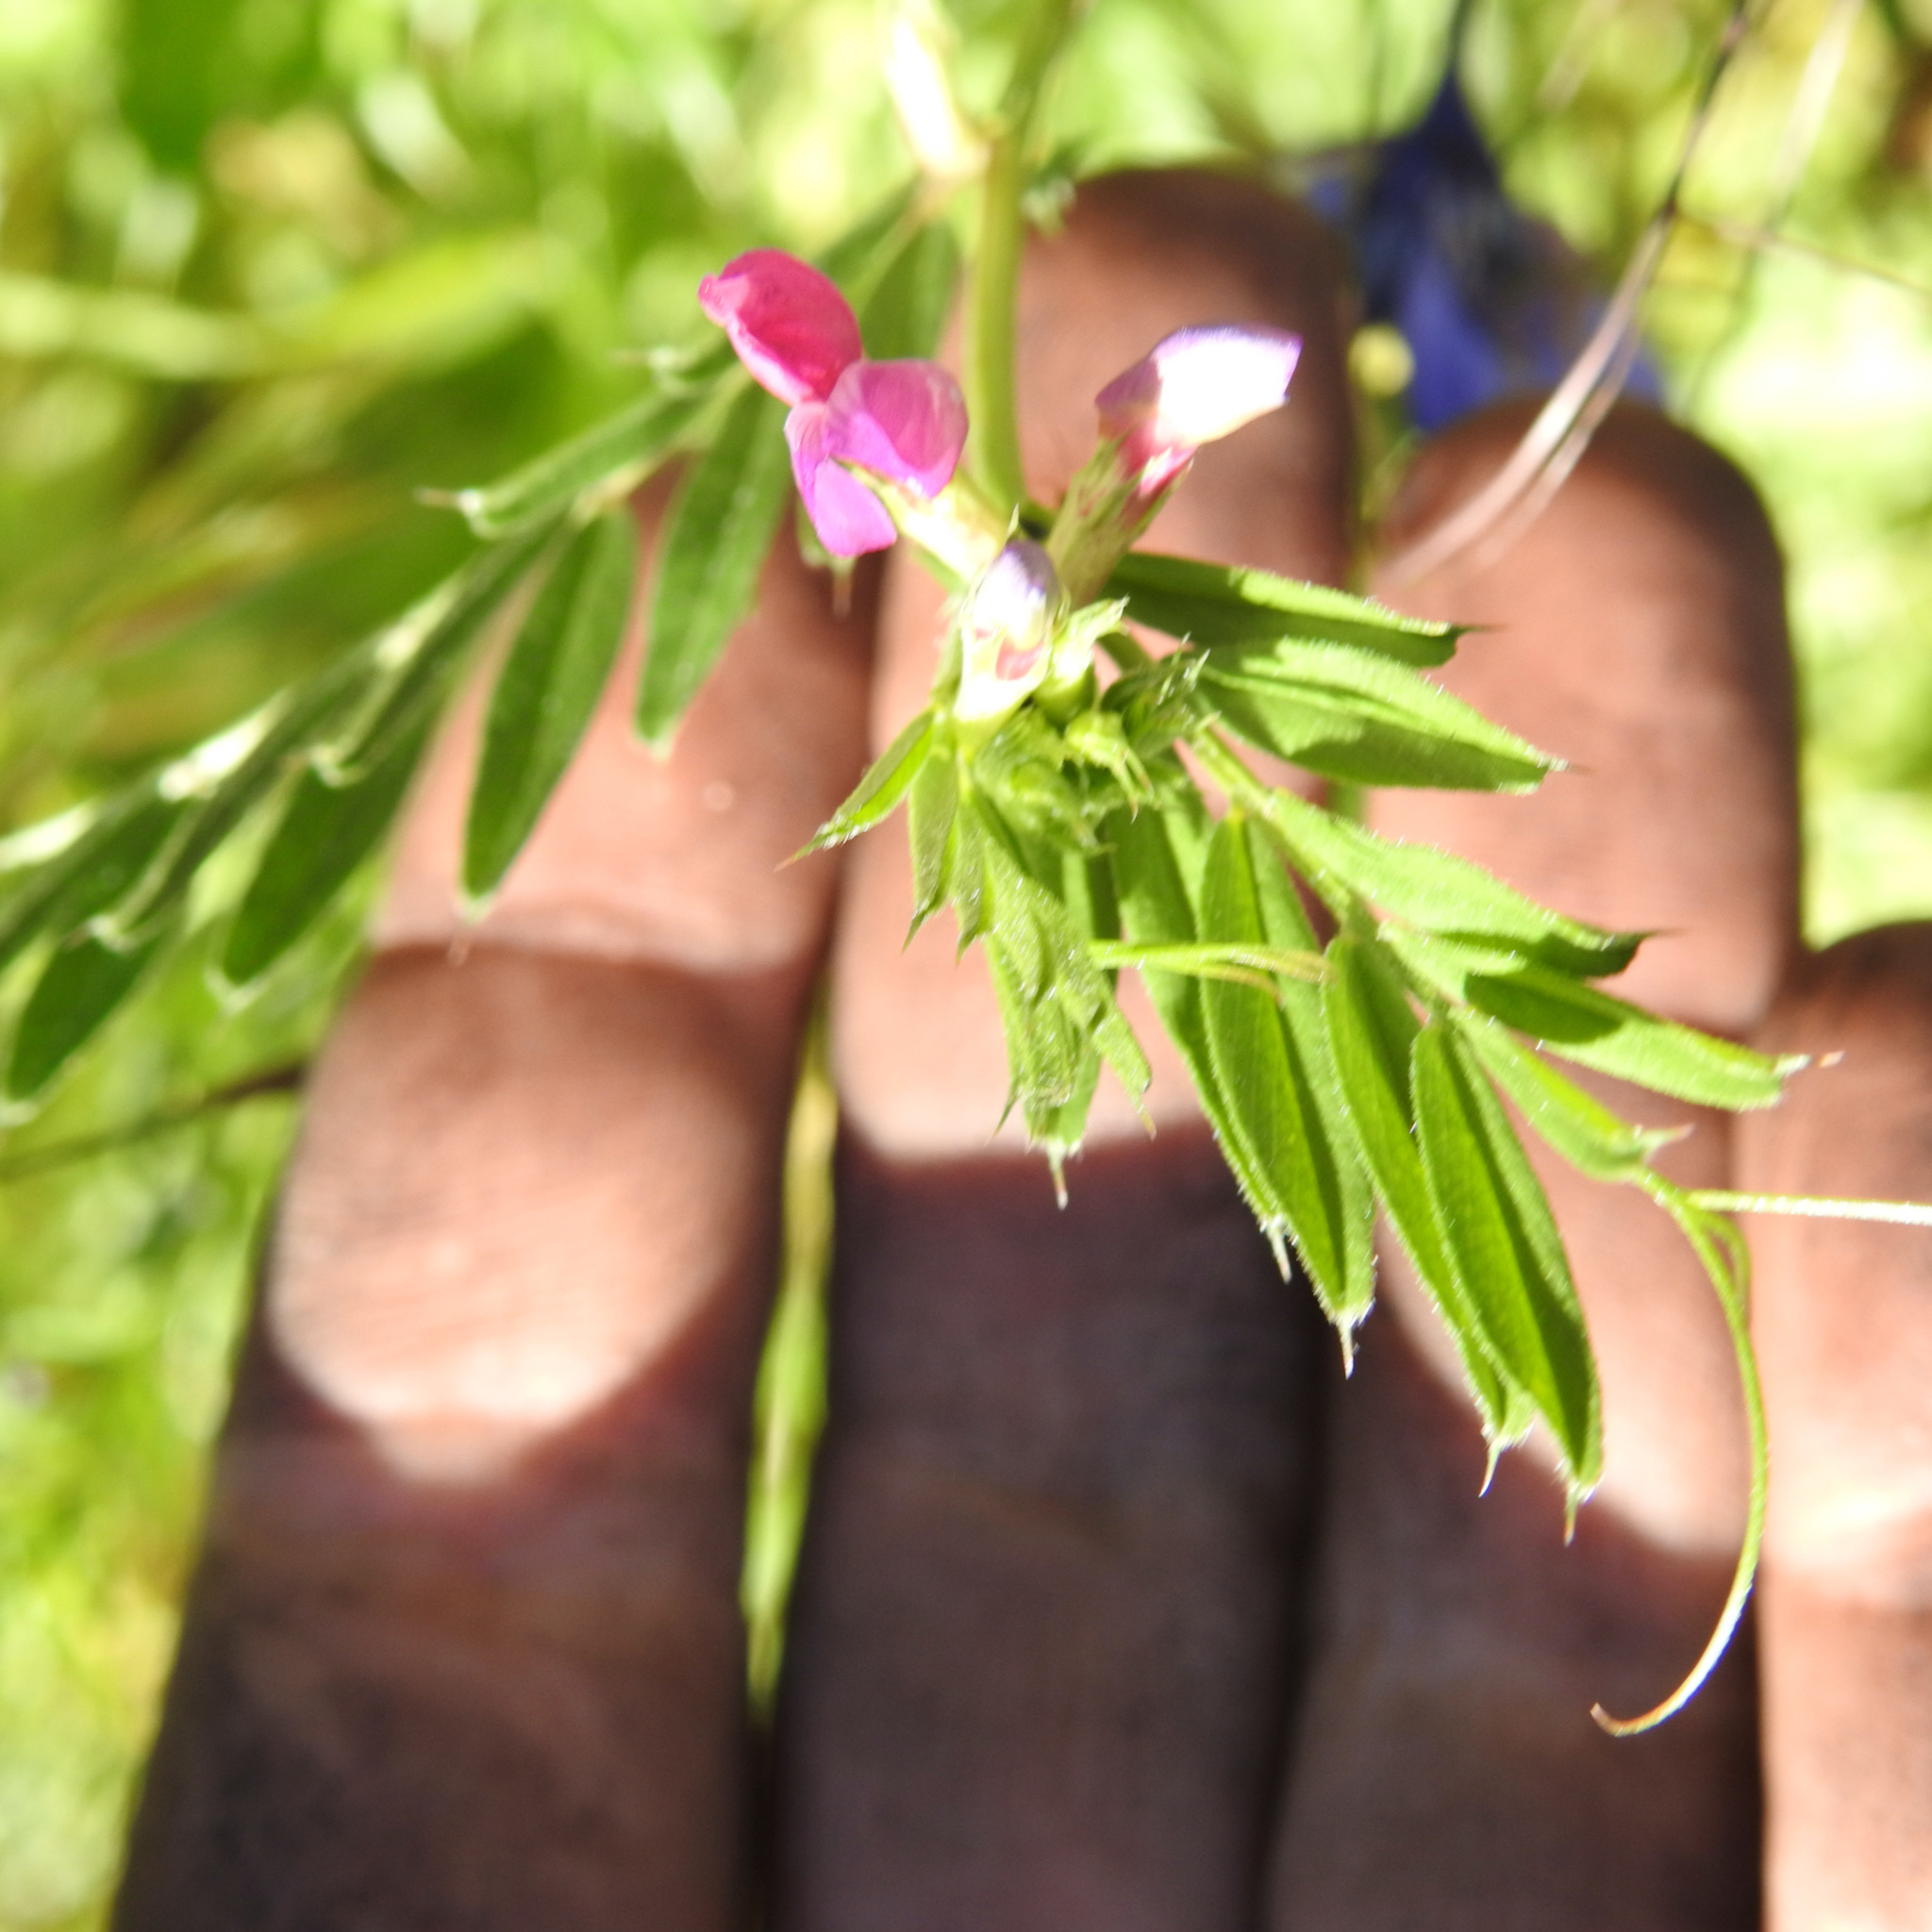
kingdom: Plantae
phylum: Tracheophyta
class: Magnoliopsida
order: Fabales
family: Fabaceae
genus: Vicia
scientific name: Vicia sativa
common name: Garden vetch
